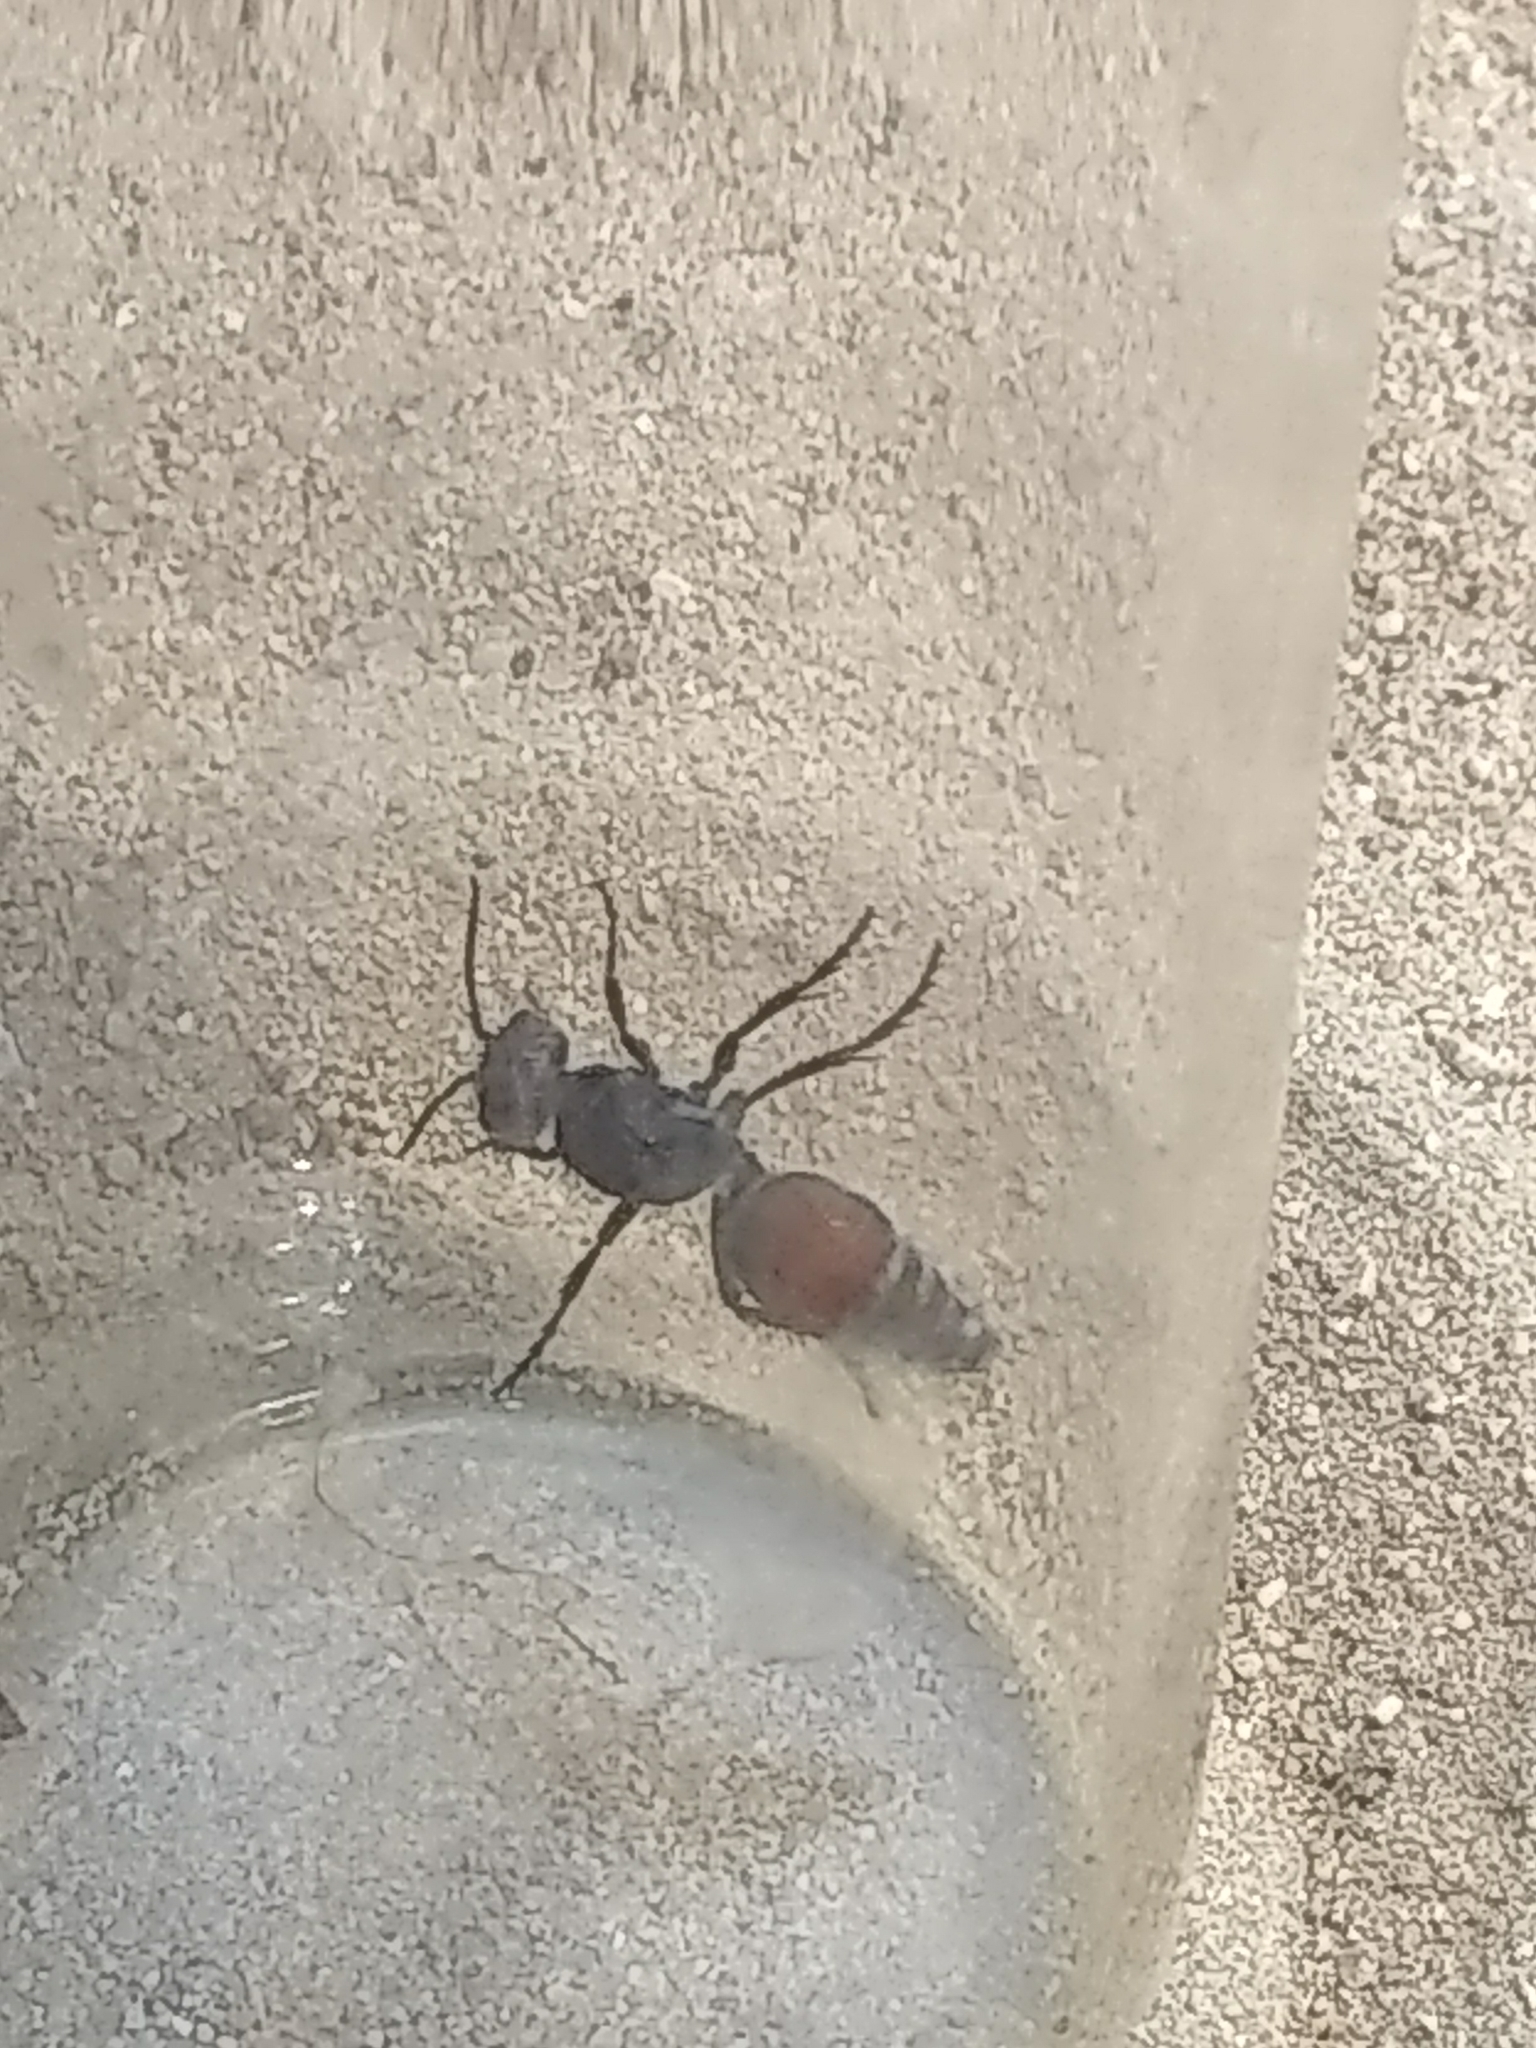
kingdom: Animalia
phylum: Arthropoda
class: Insecta
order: Hymenoptera
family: Mutillidae
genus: Dasymutilla
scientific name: Dasymutilla
